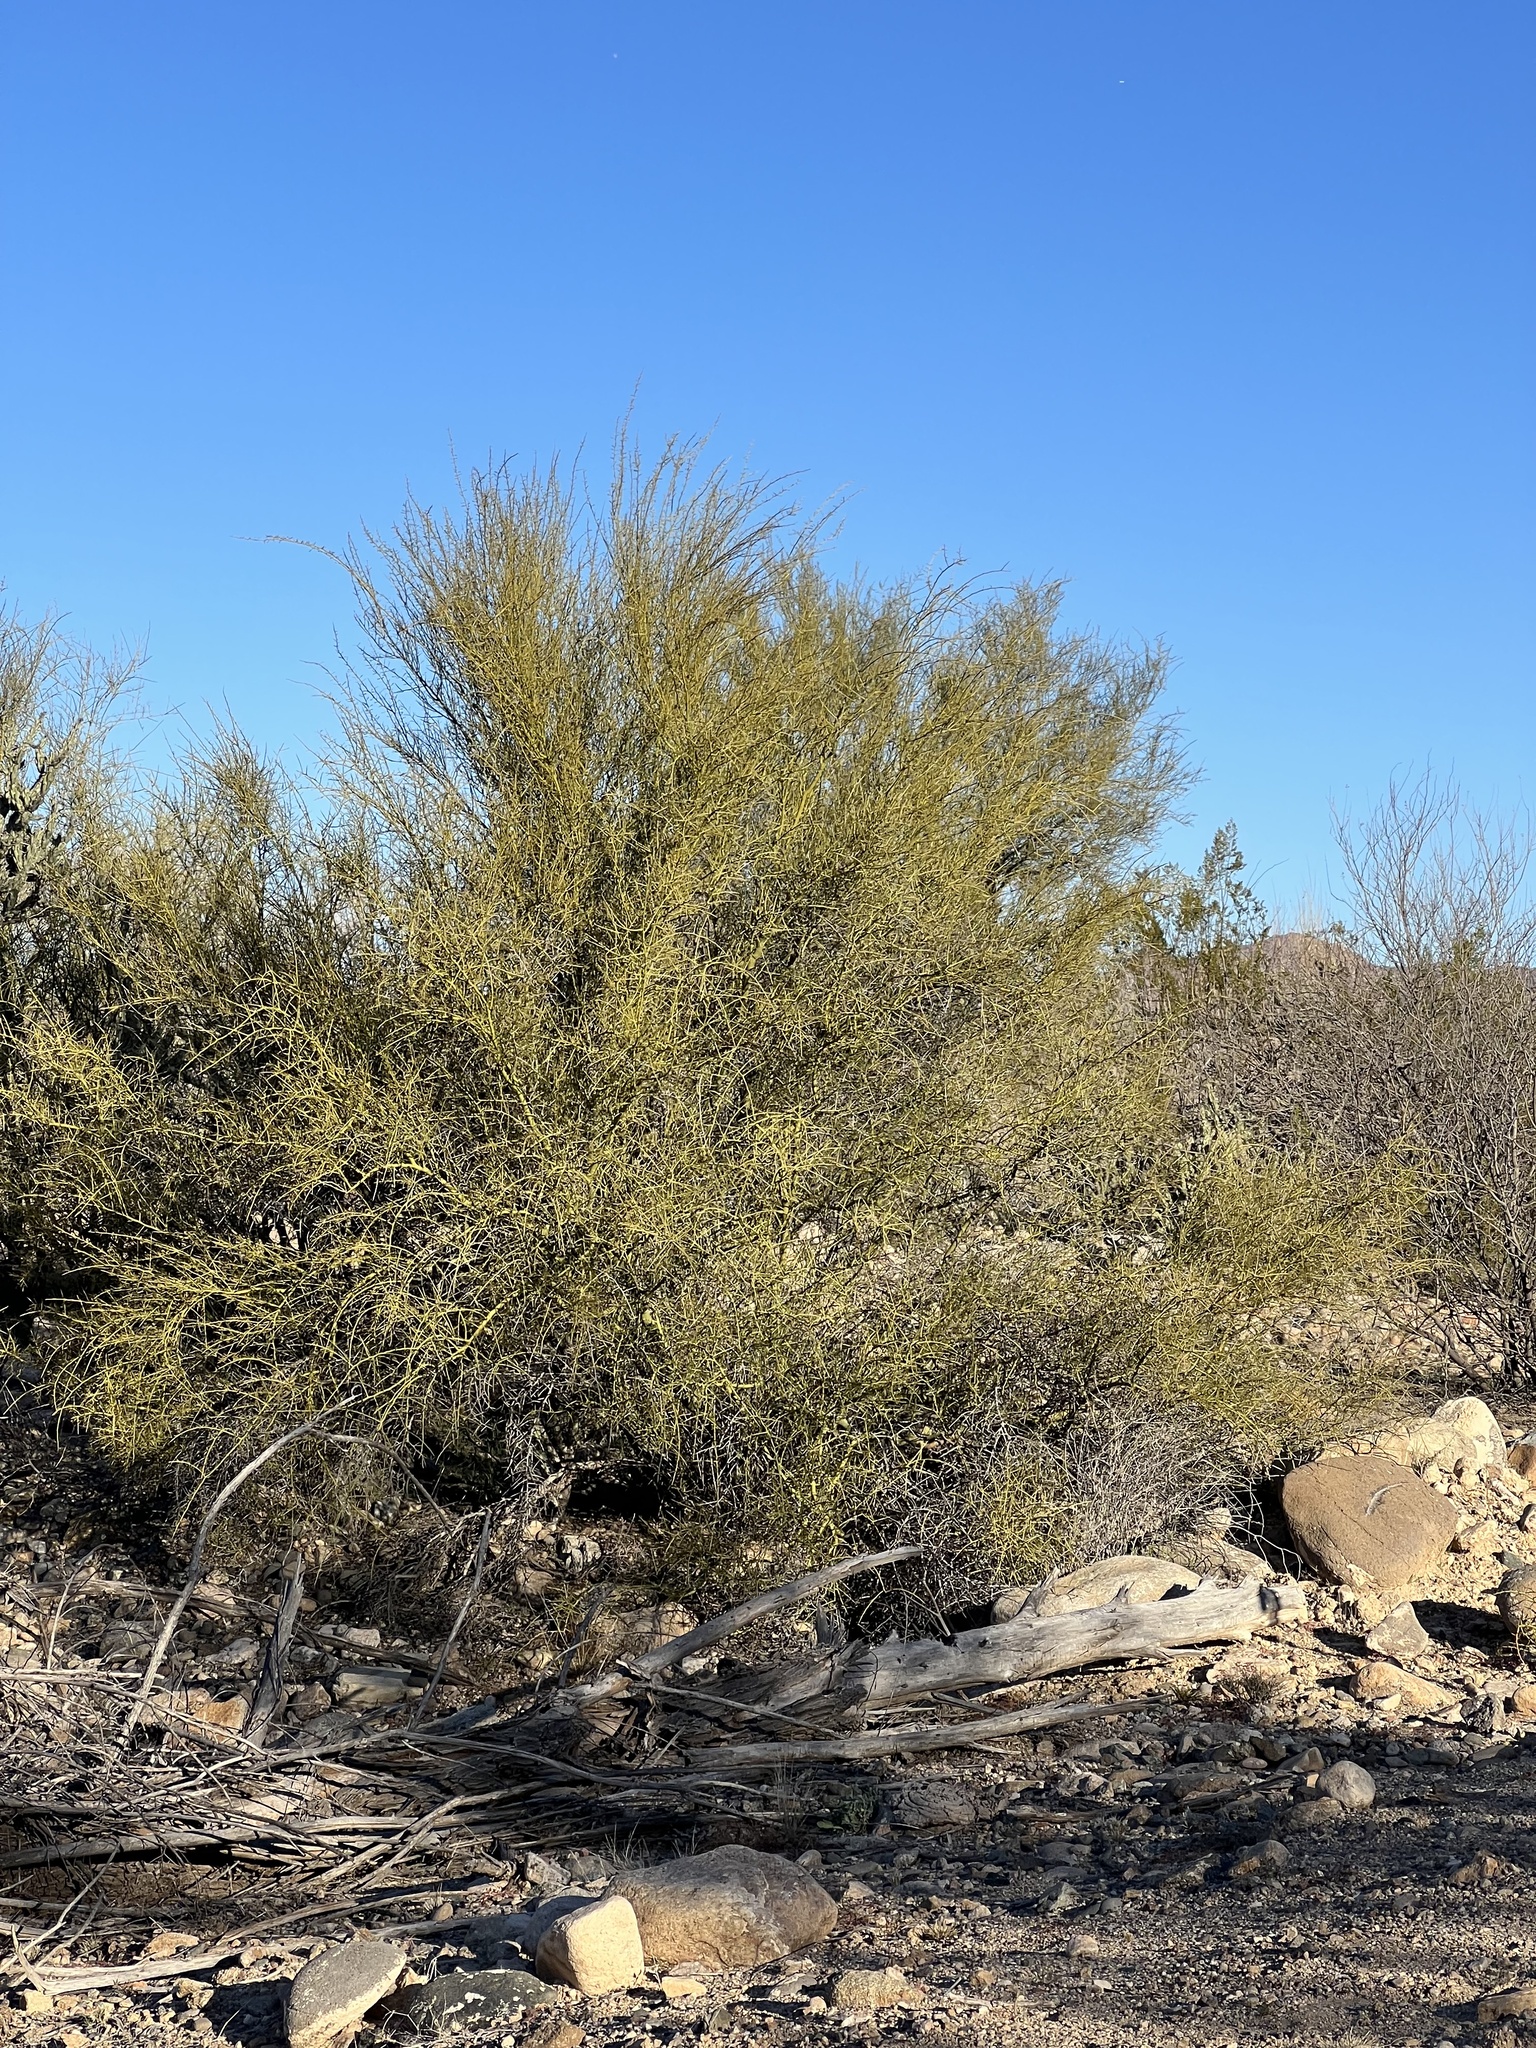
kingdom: Plantae
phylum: Tracheophyta
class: Magnoliopsida
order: Fabales
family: Fabaceae
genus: Parkinsonia
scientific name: Parkinsonia microphylla
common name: Yellow paloverde
